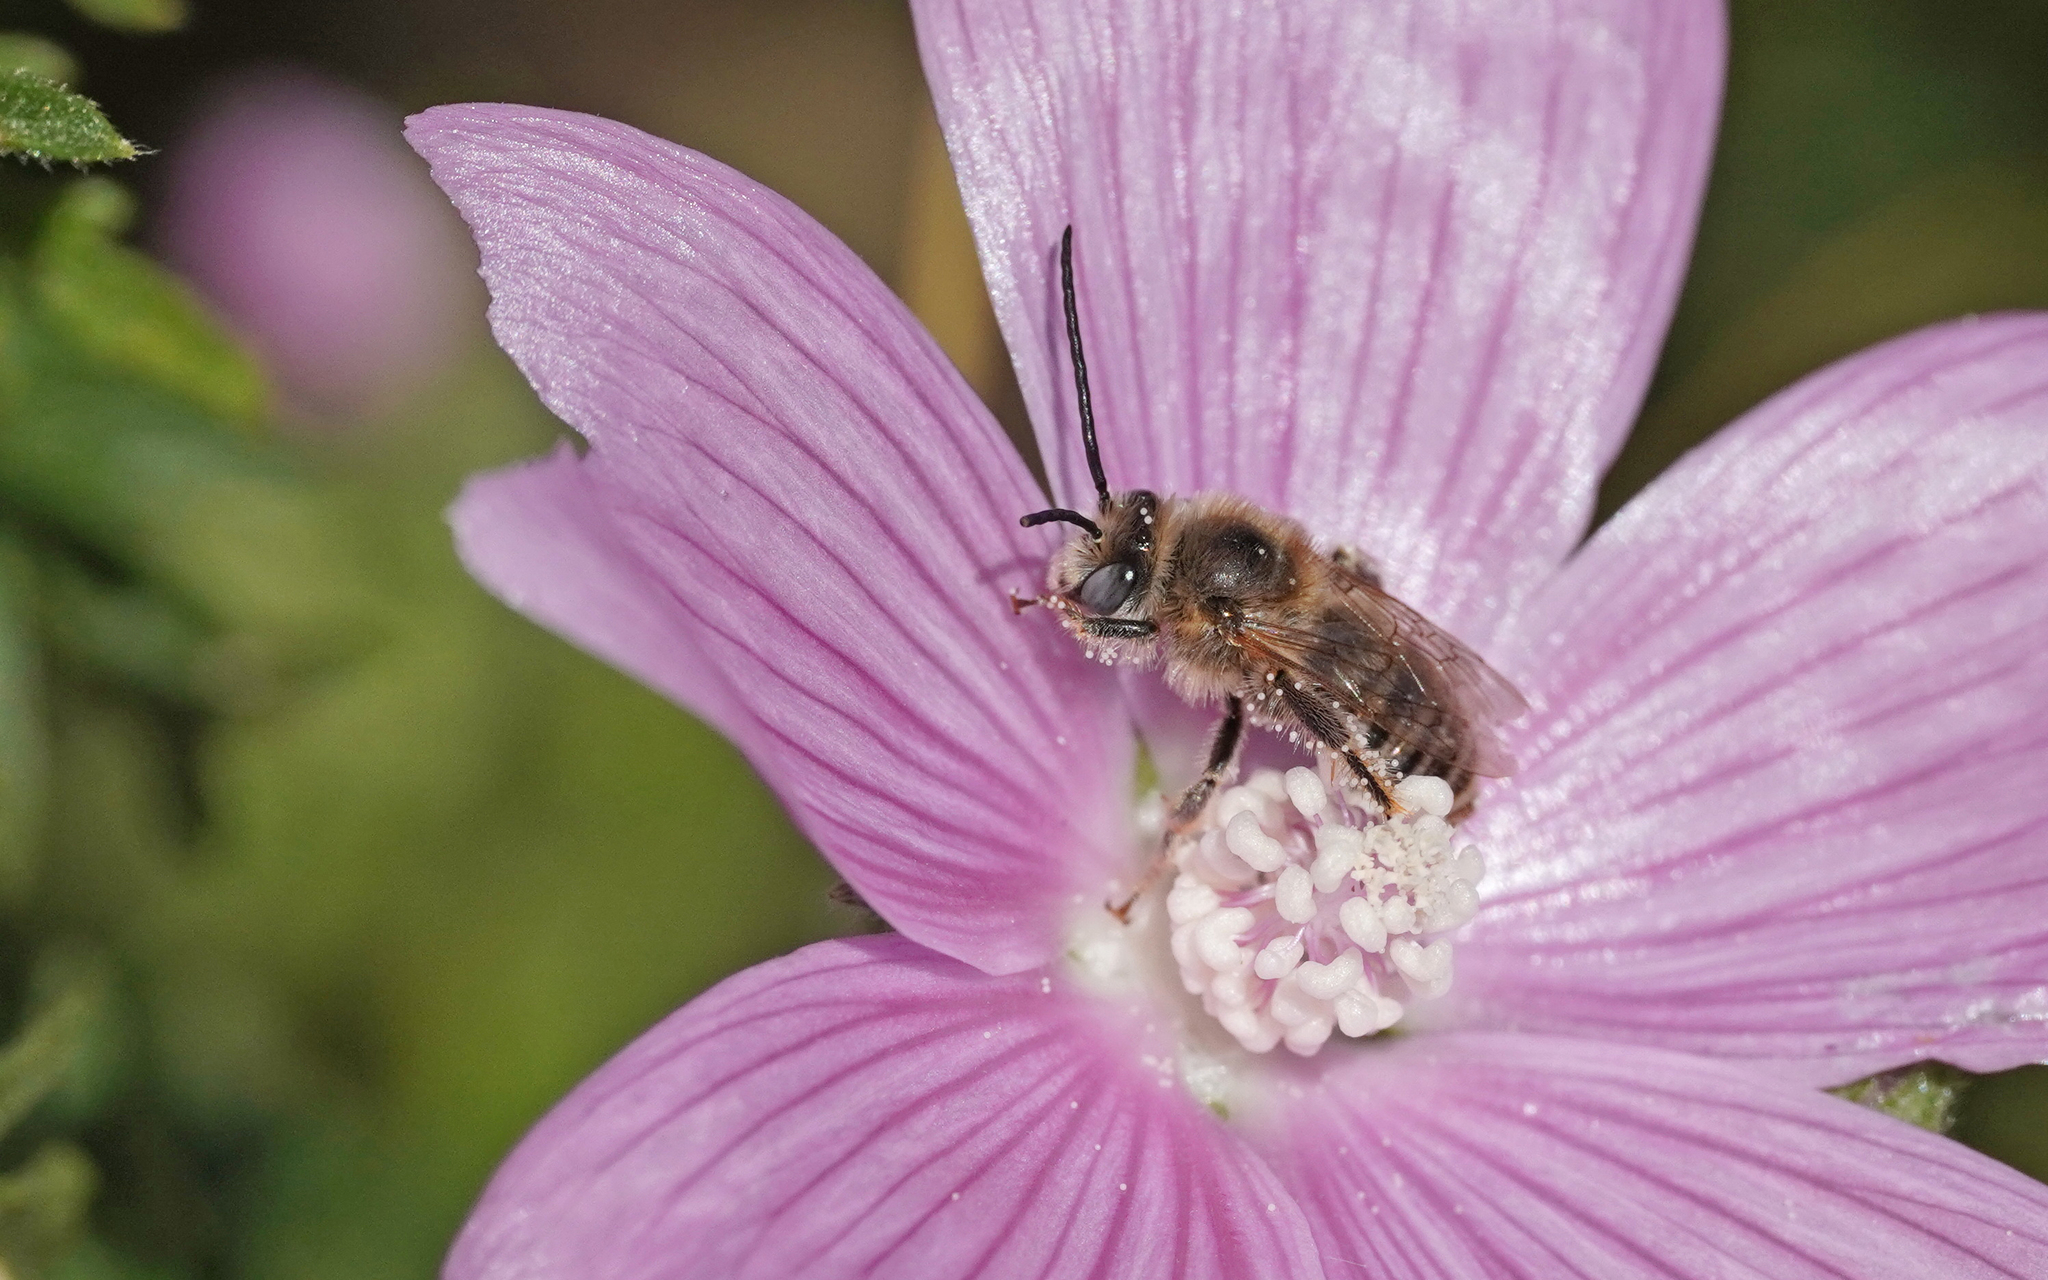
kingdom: Animalia
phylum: Arthropoda
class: Insecta
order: Hymenoptera
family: Apidae
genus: Tetralonia
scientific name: Tetralonia malvae
